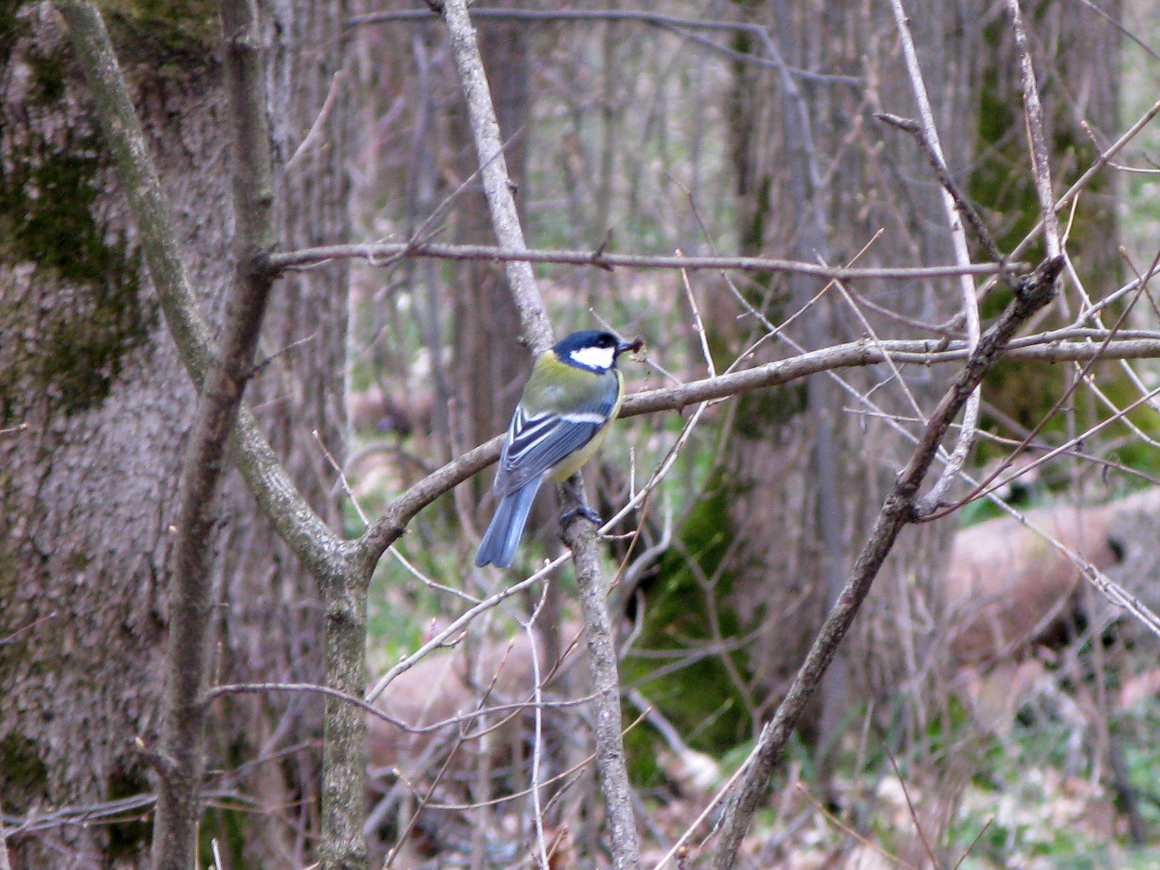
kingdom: Animalia
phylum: Chordata
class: Aves
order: Passeriformes
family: Paridae
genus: Parus
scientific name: Parus major
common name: Great tit
